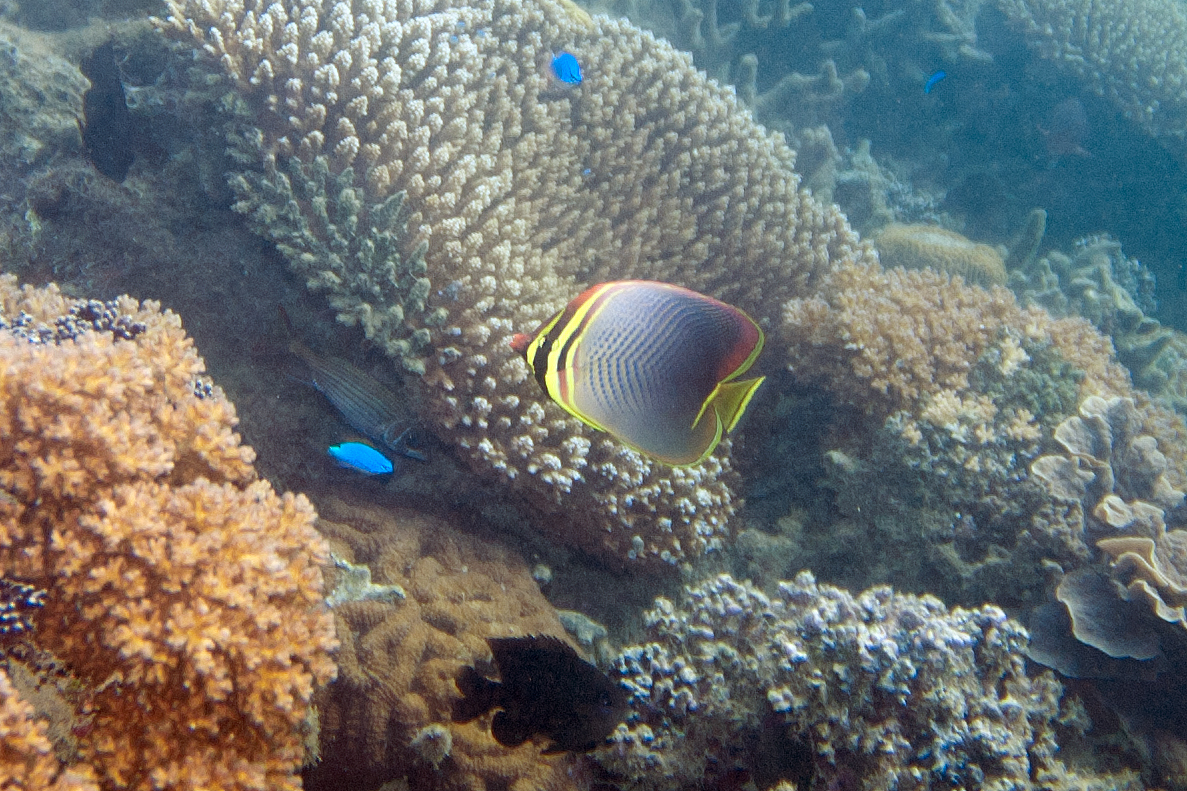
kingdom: Animalia
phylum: Chordata
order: Perciformes
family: Chaetodontidae
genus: Chaetodon
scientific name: Chaetodon baronessa
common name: Triangular butterflyfish
